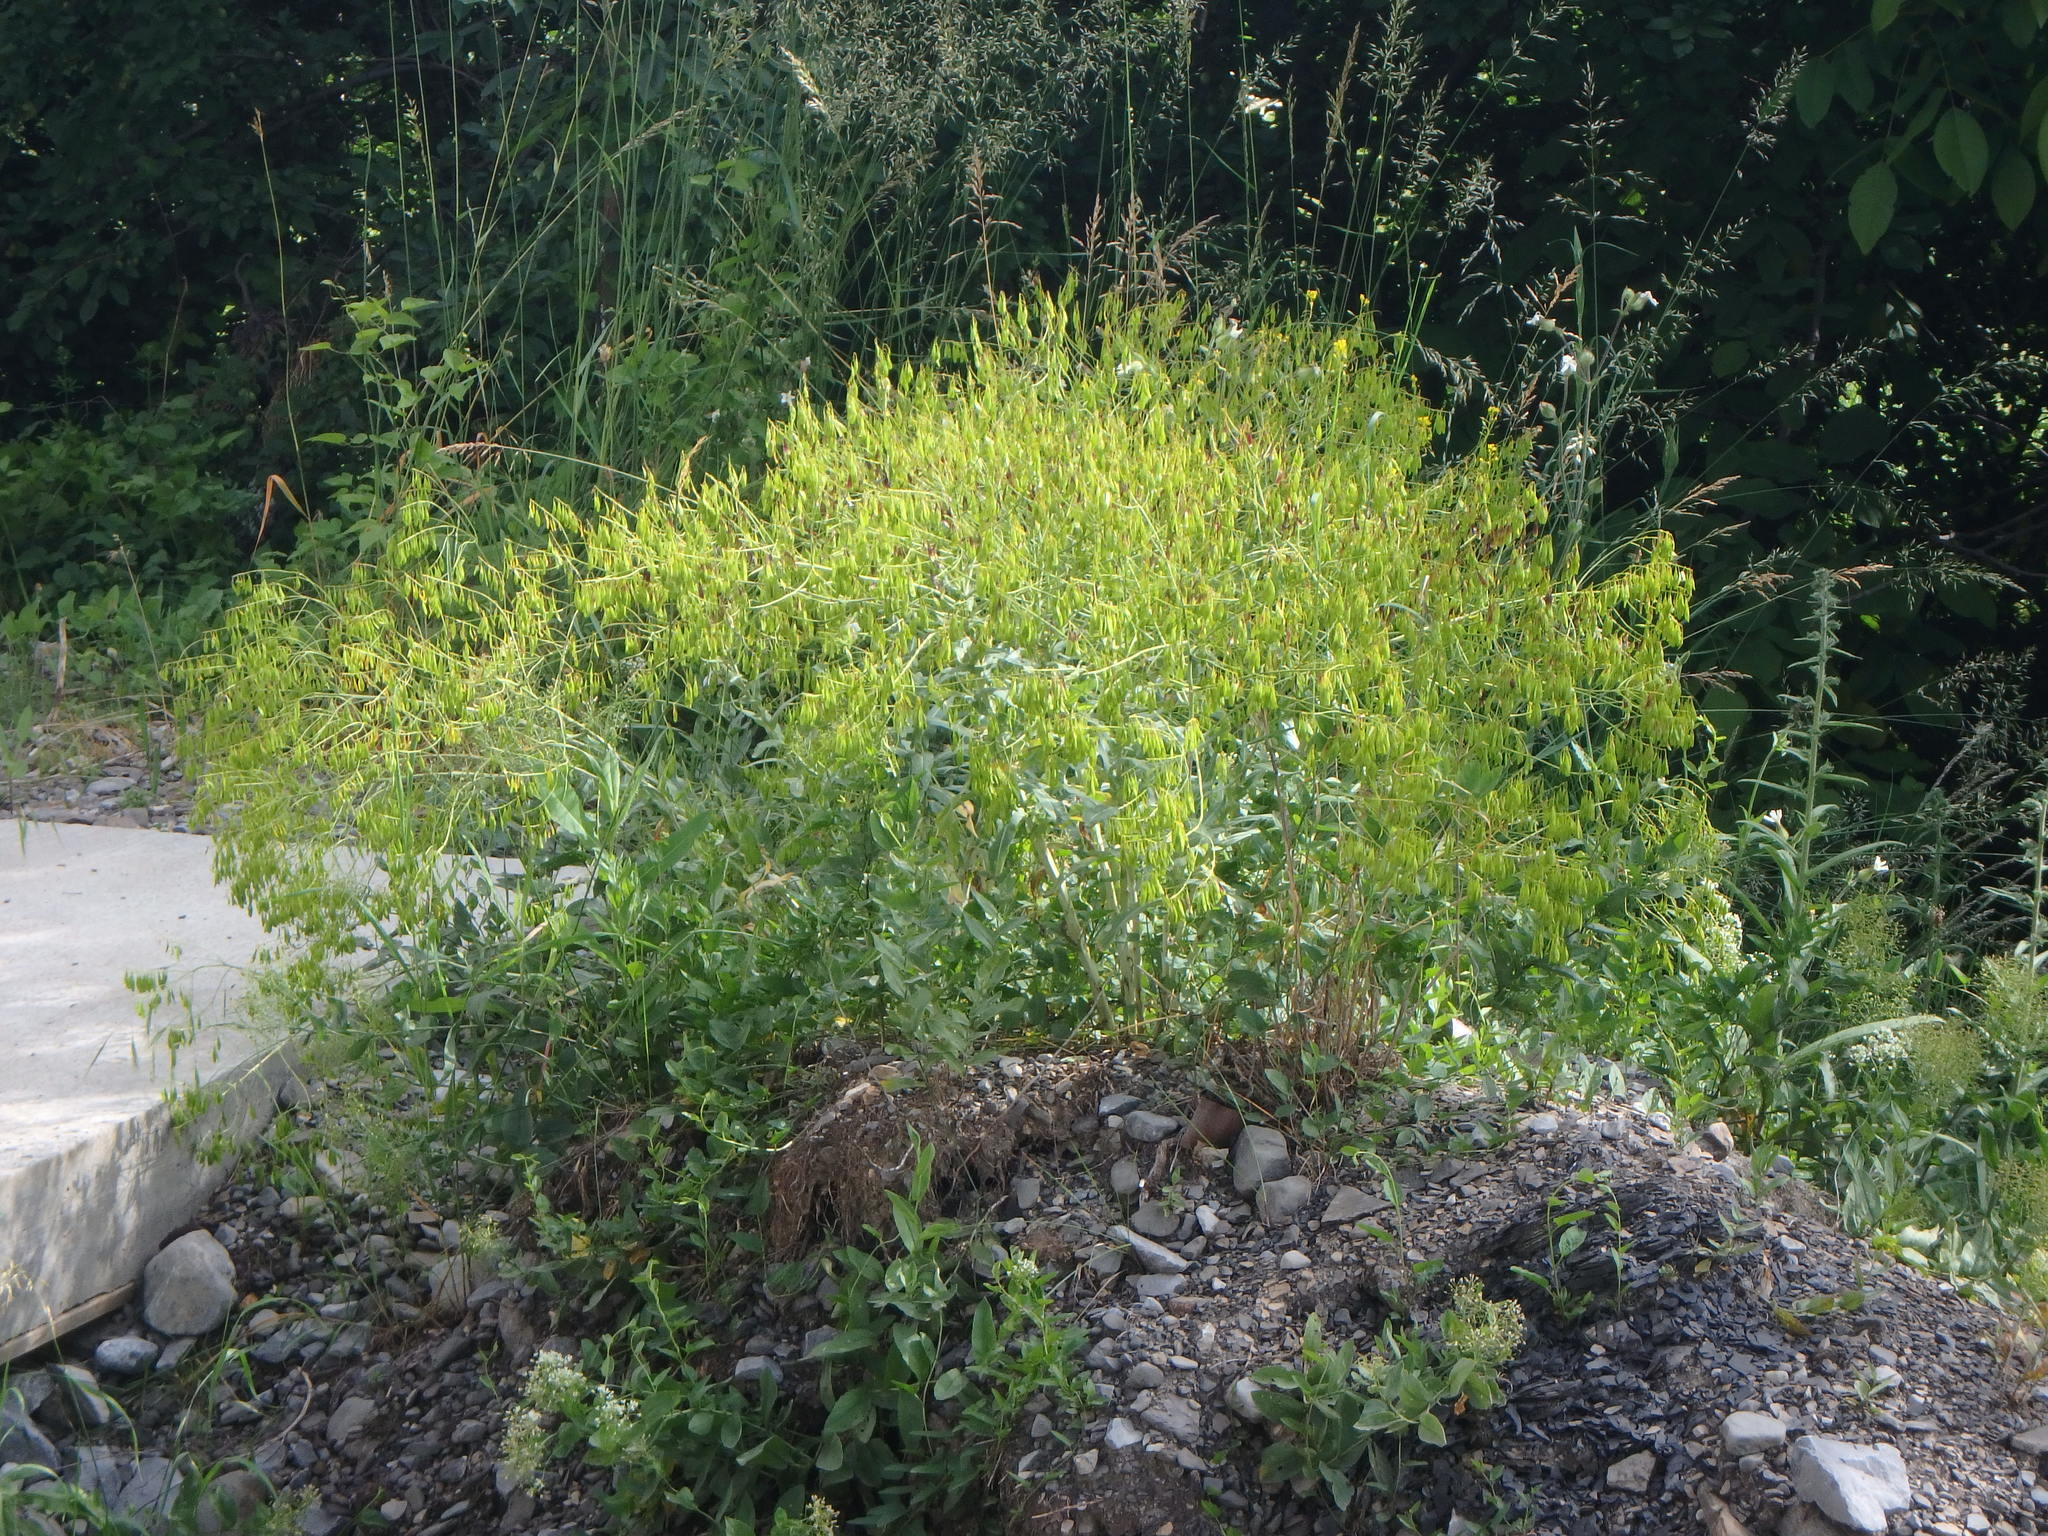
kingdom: Plantae
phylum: Tracheophyta
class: Magnoliopsida
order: Brassicales
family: Brassicaceae
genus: Isatis
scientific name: Isatis tinctoria
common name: Woad
